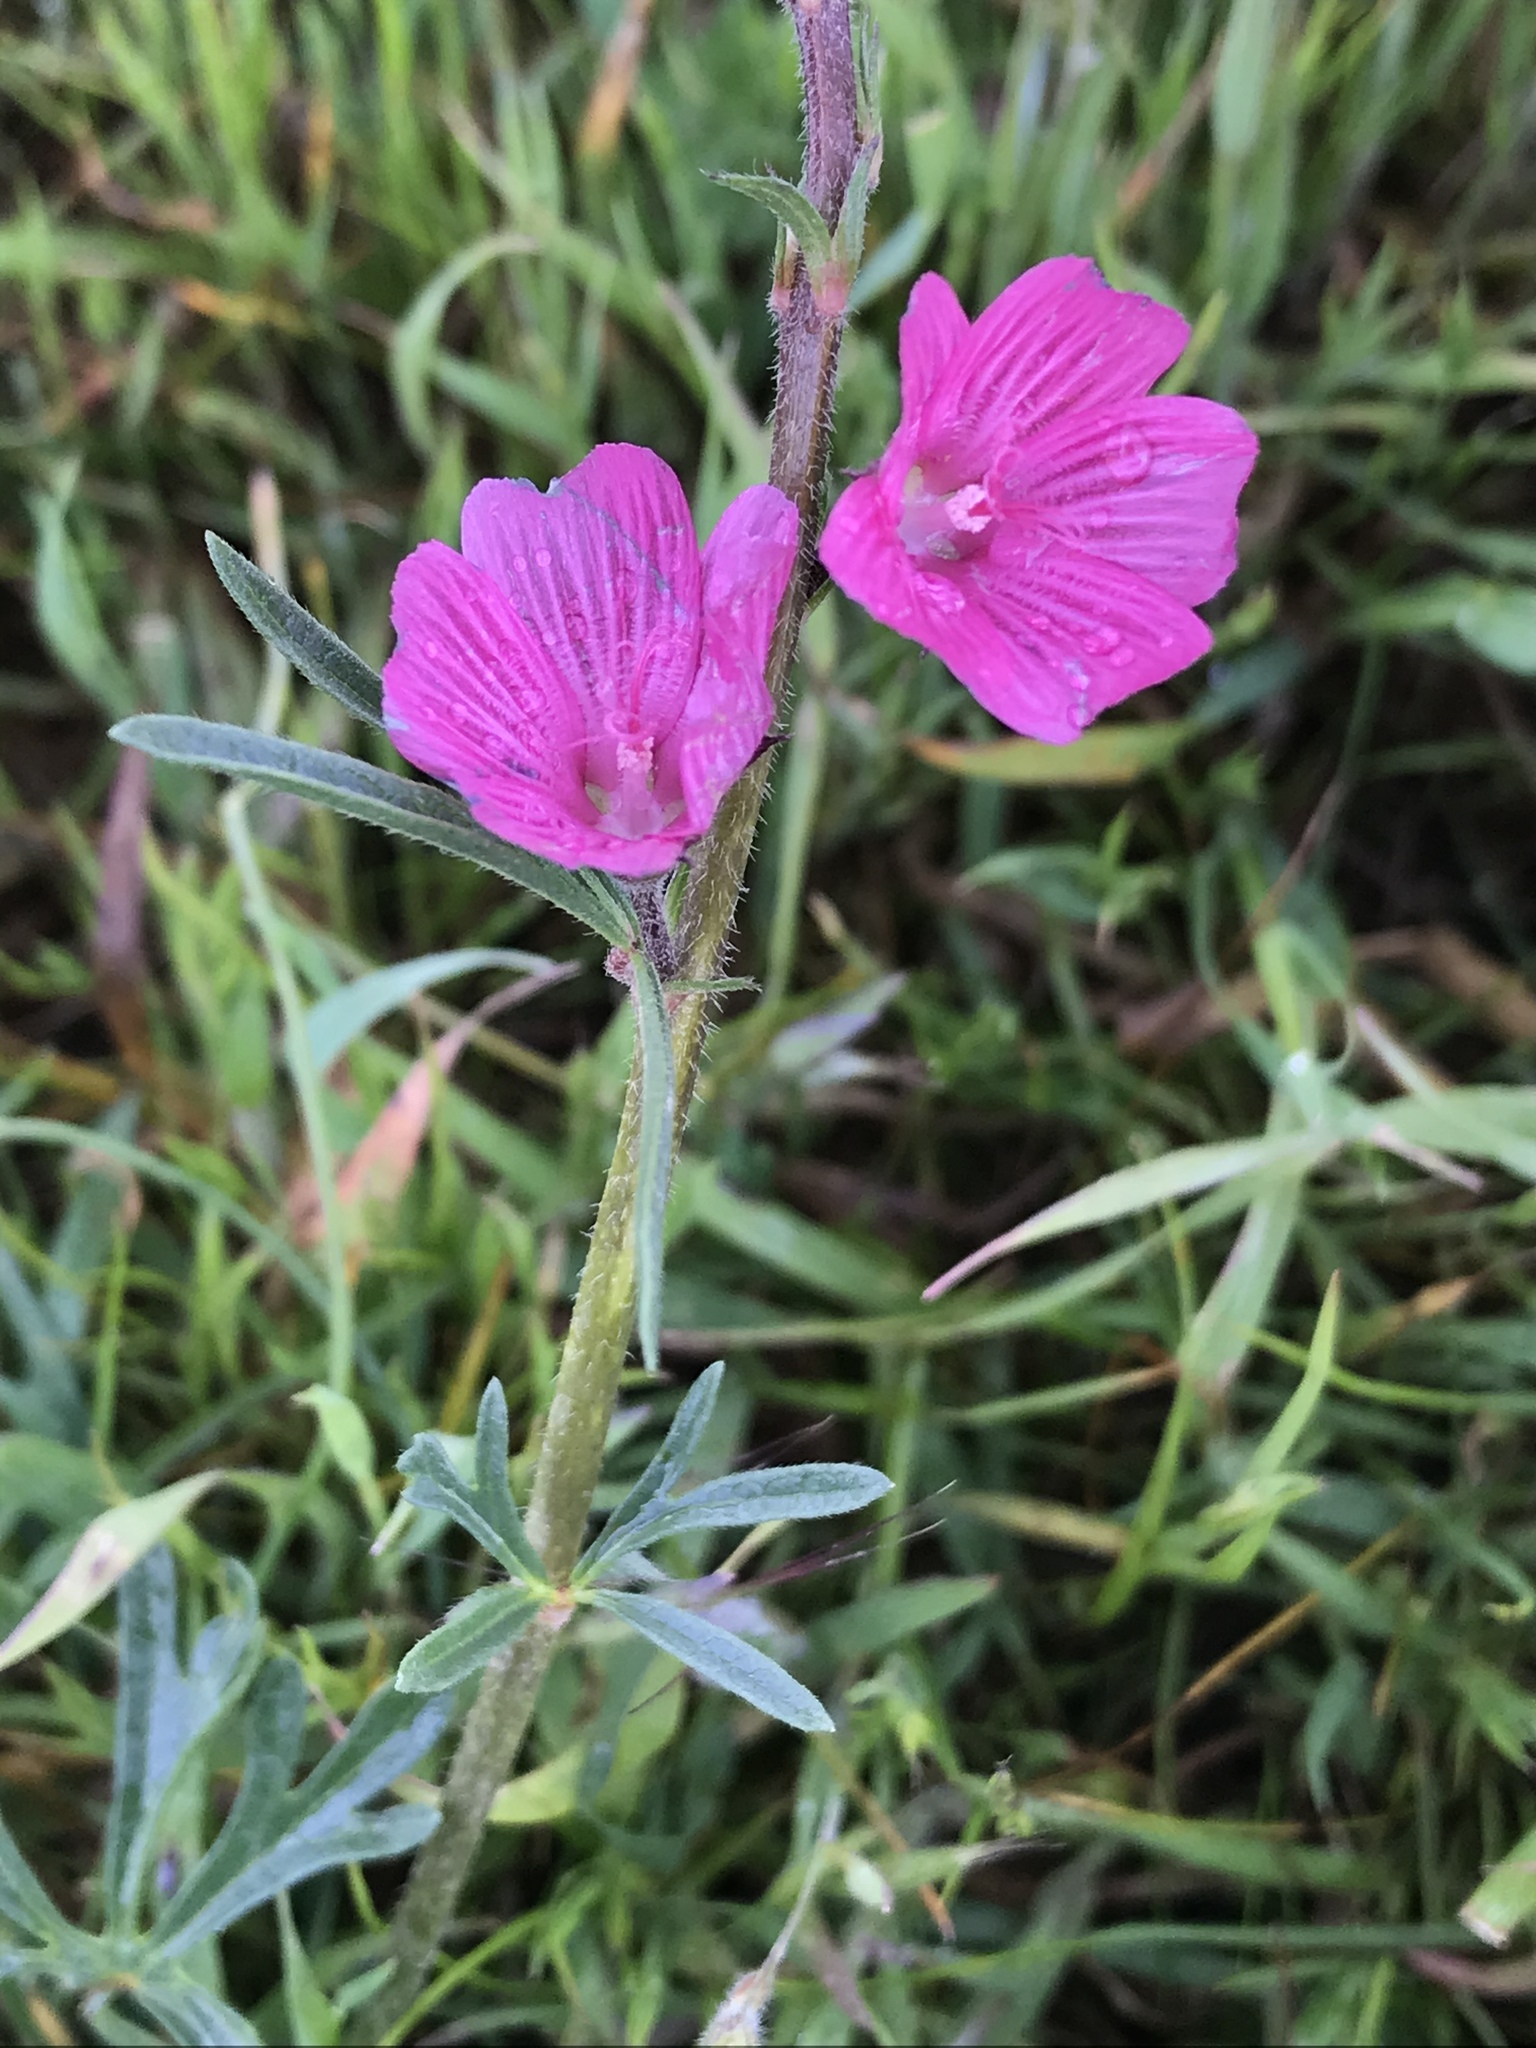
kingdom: Plantae
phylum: Tracheophyta
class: Magnoliopsida
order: Malvales
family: Malvaceae
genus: Sidalcea
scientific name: Sidalcea malviflora
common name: Greek mallow
